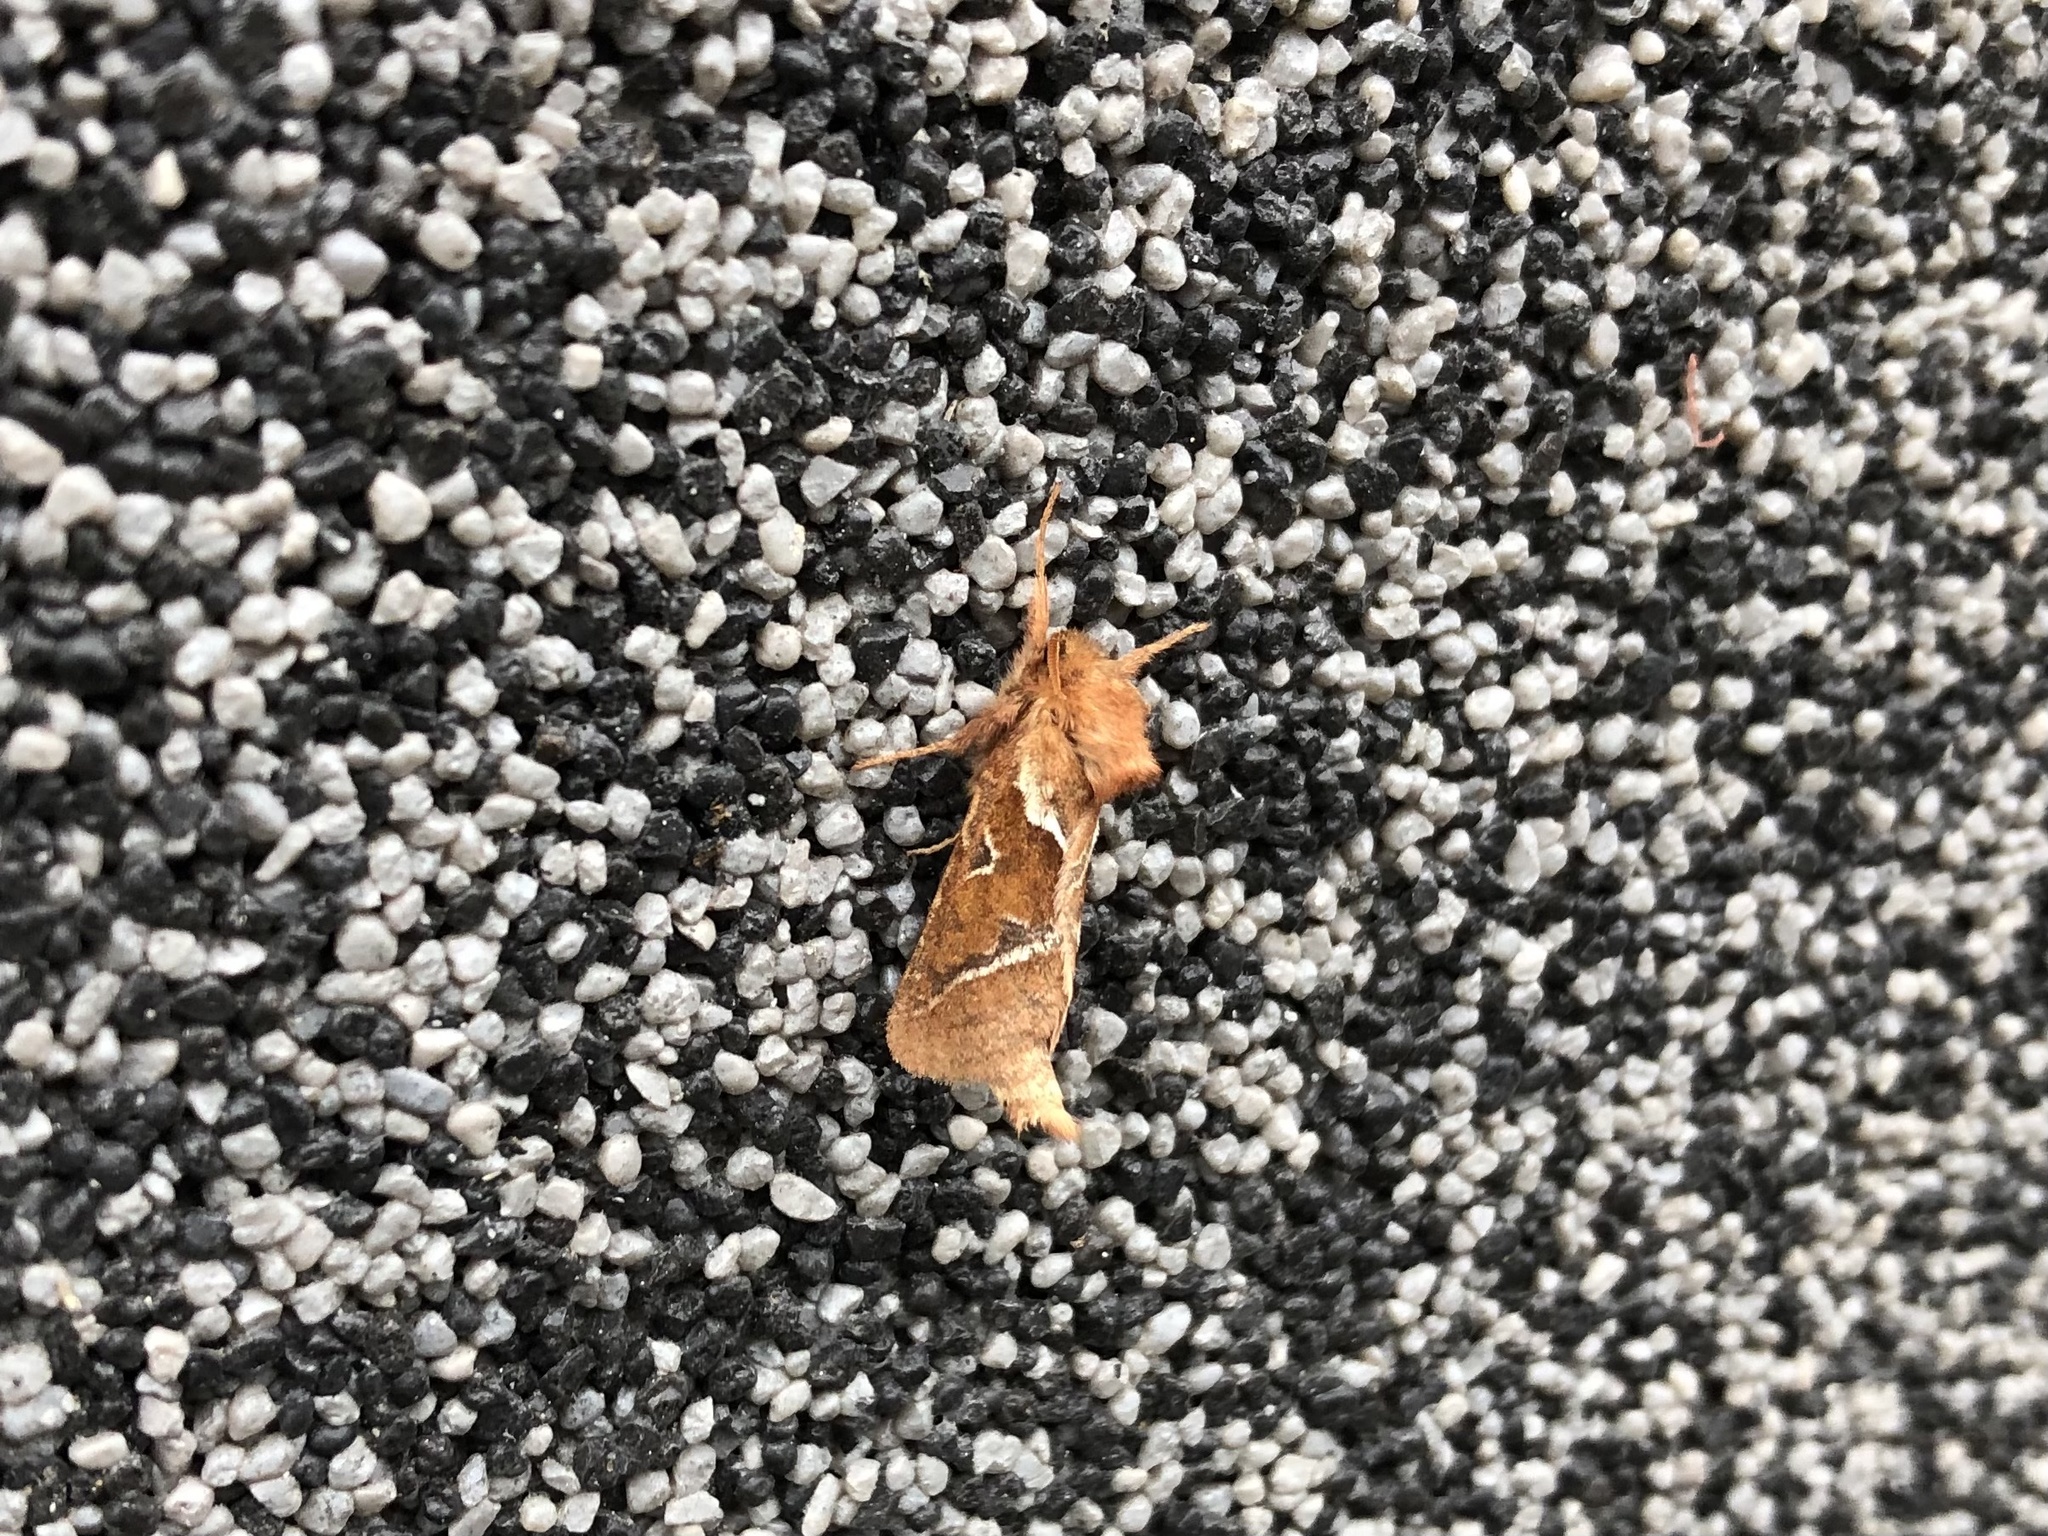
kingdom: Animalia
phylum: Arthropoda
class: Insecta
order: Lepidoptera
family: Hepialidae
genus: Triodia
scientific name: Triodia sylvina
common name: Orange swift
